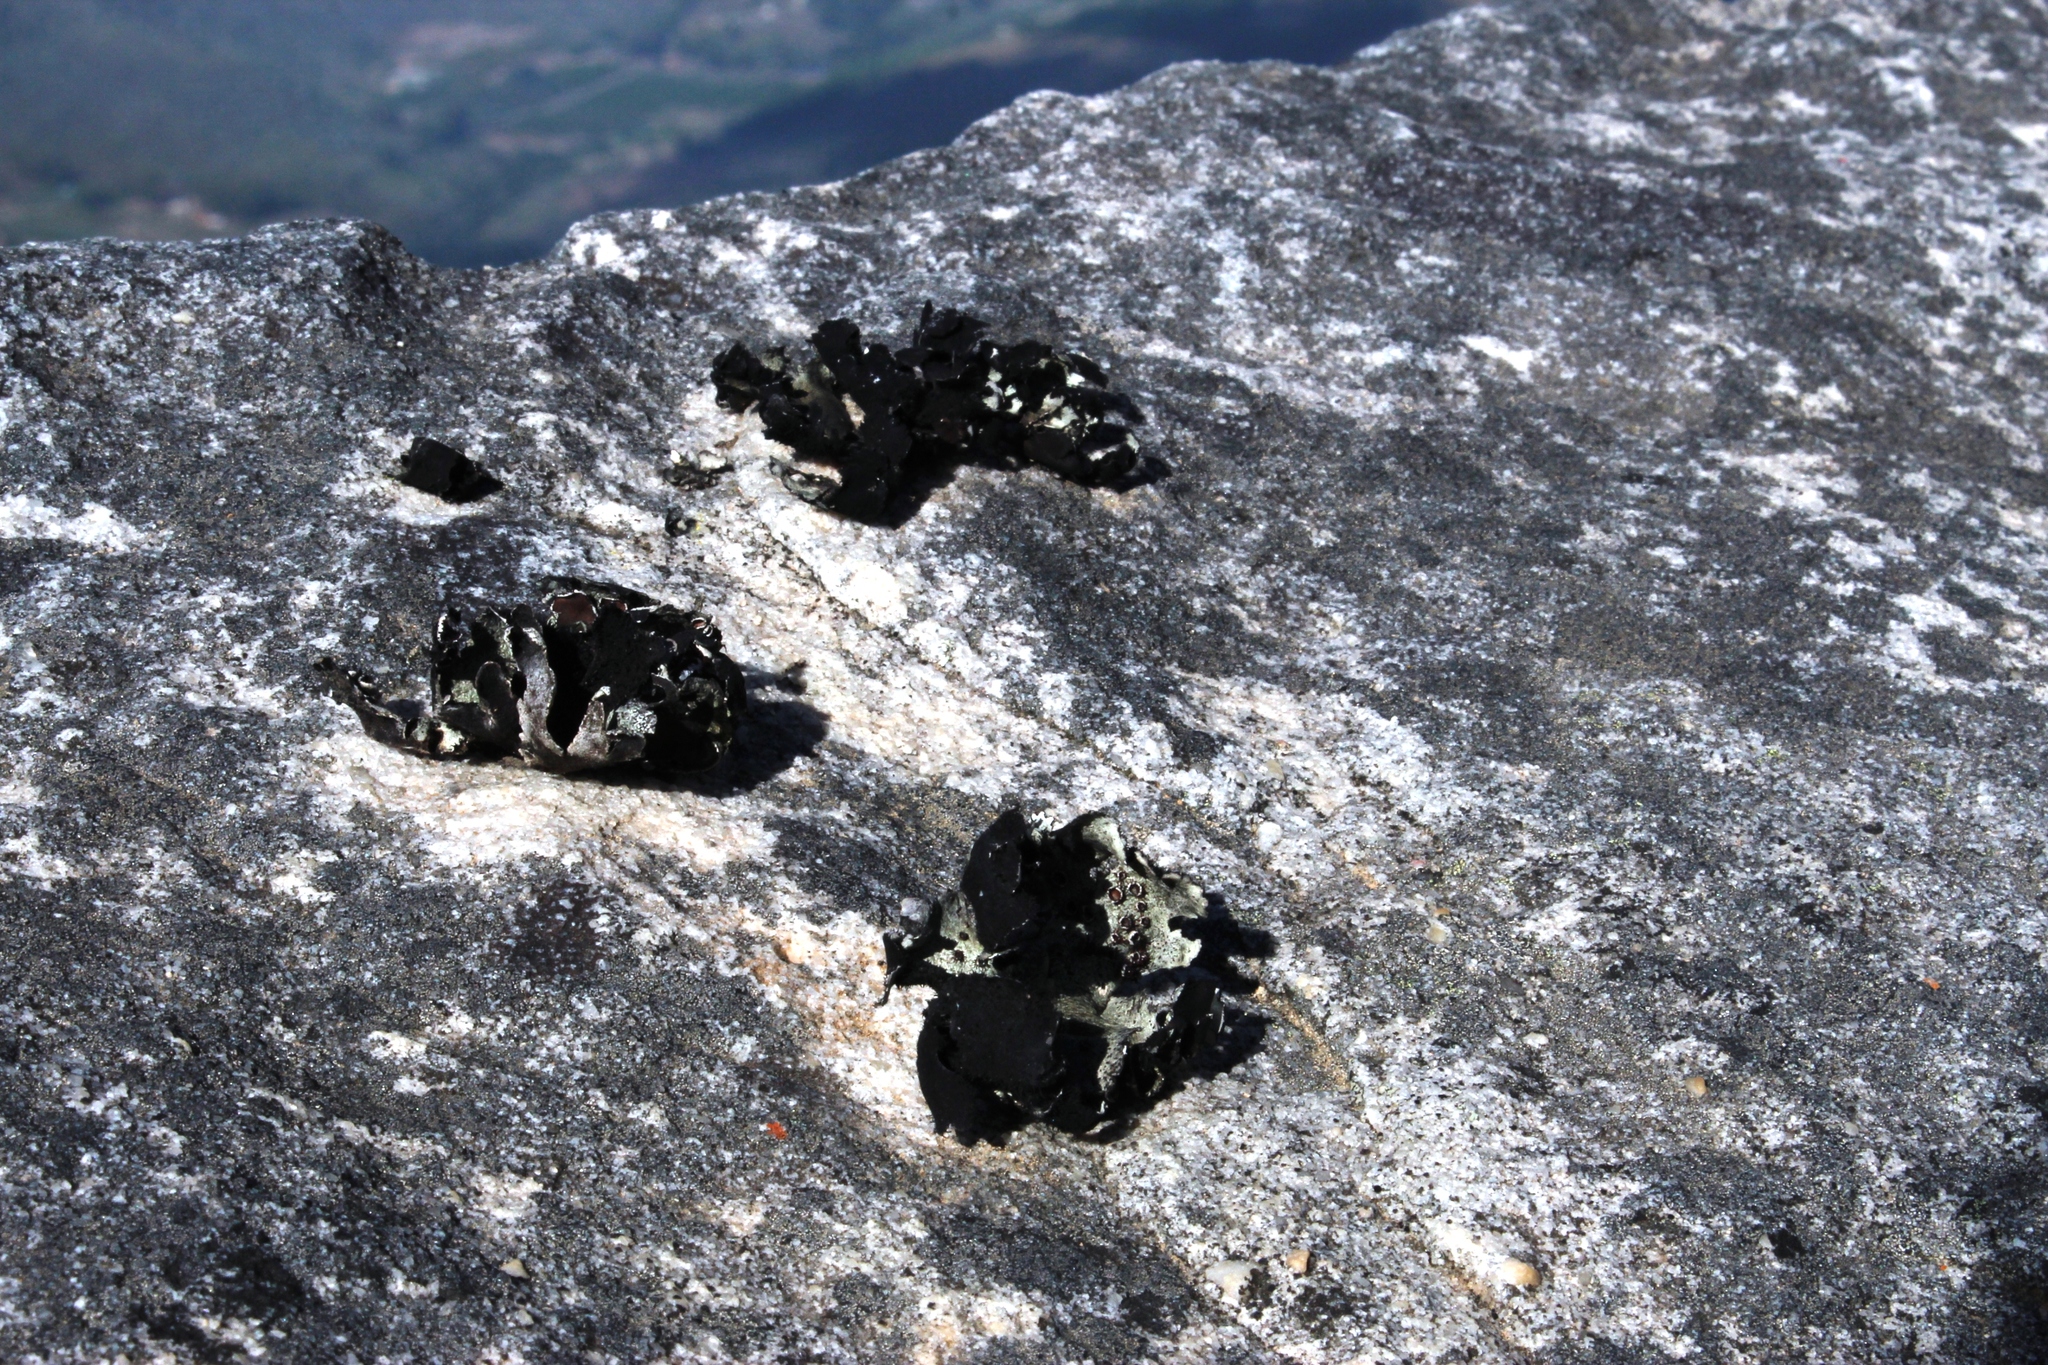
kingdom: Fungi
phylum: Ascomycota
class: Lecanoromycetes
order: Lecanorales
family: Parmeliaceae
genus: Xanthoparmelia
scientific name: Xanthoparmelia hottentotta
